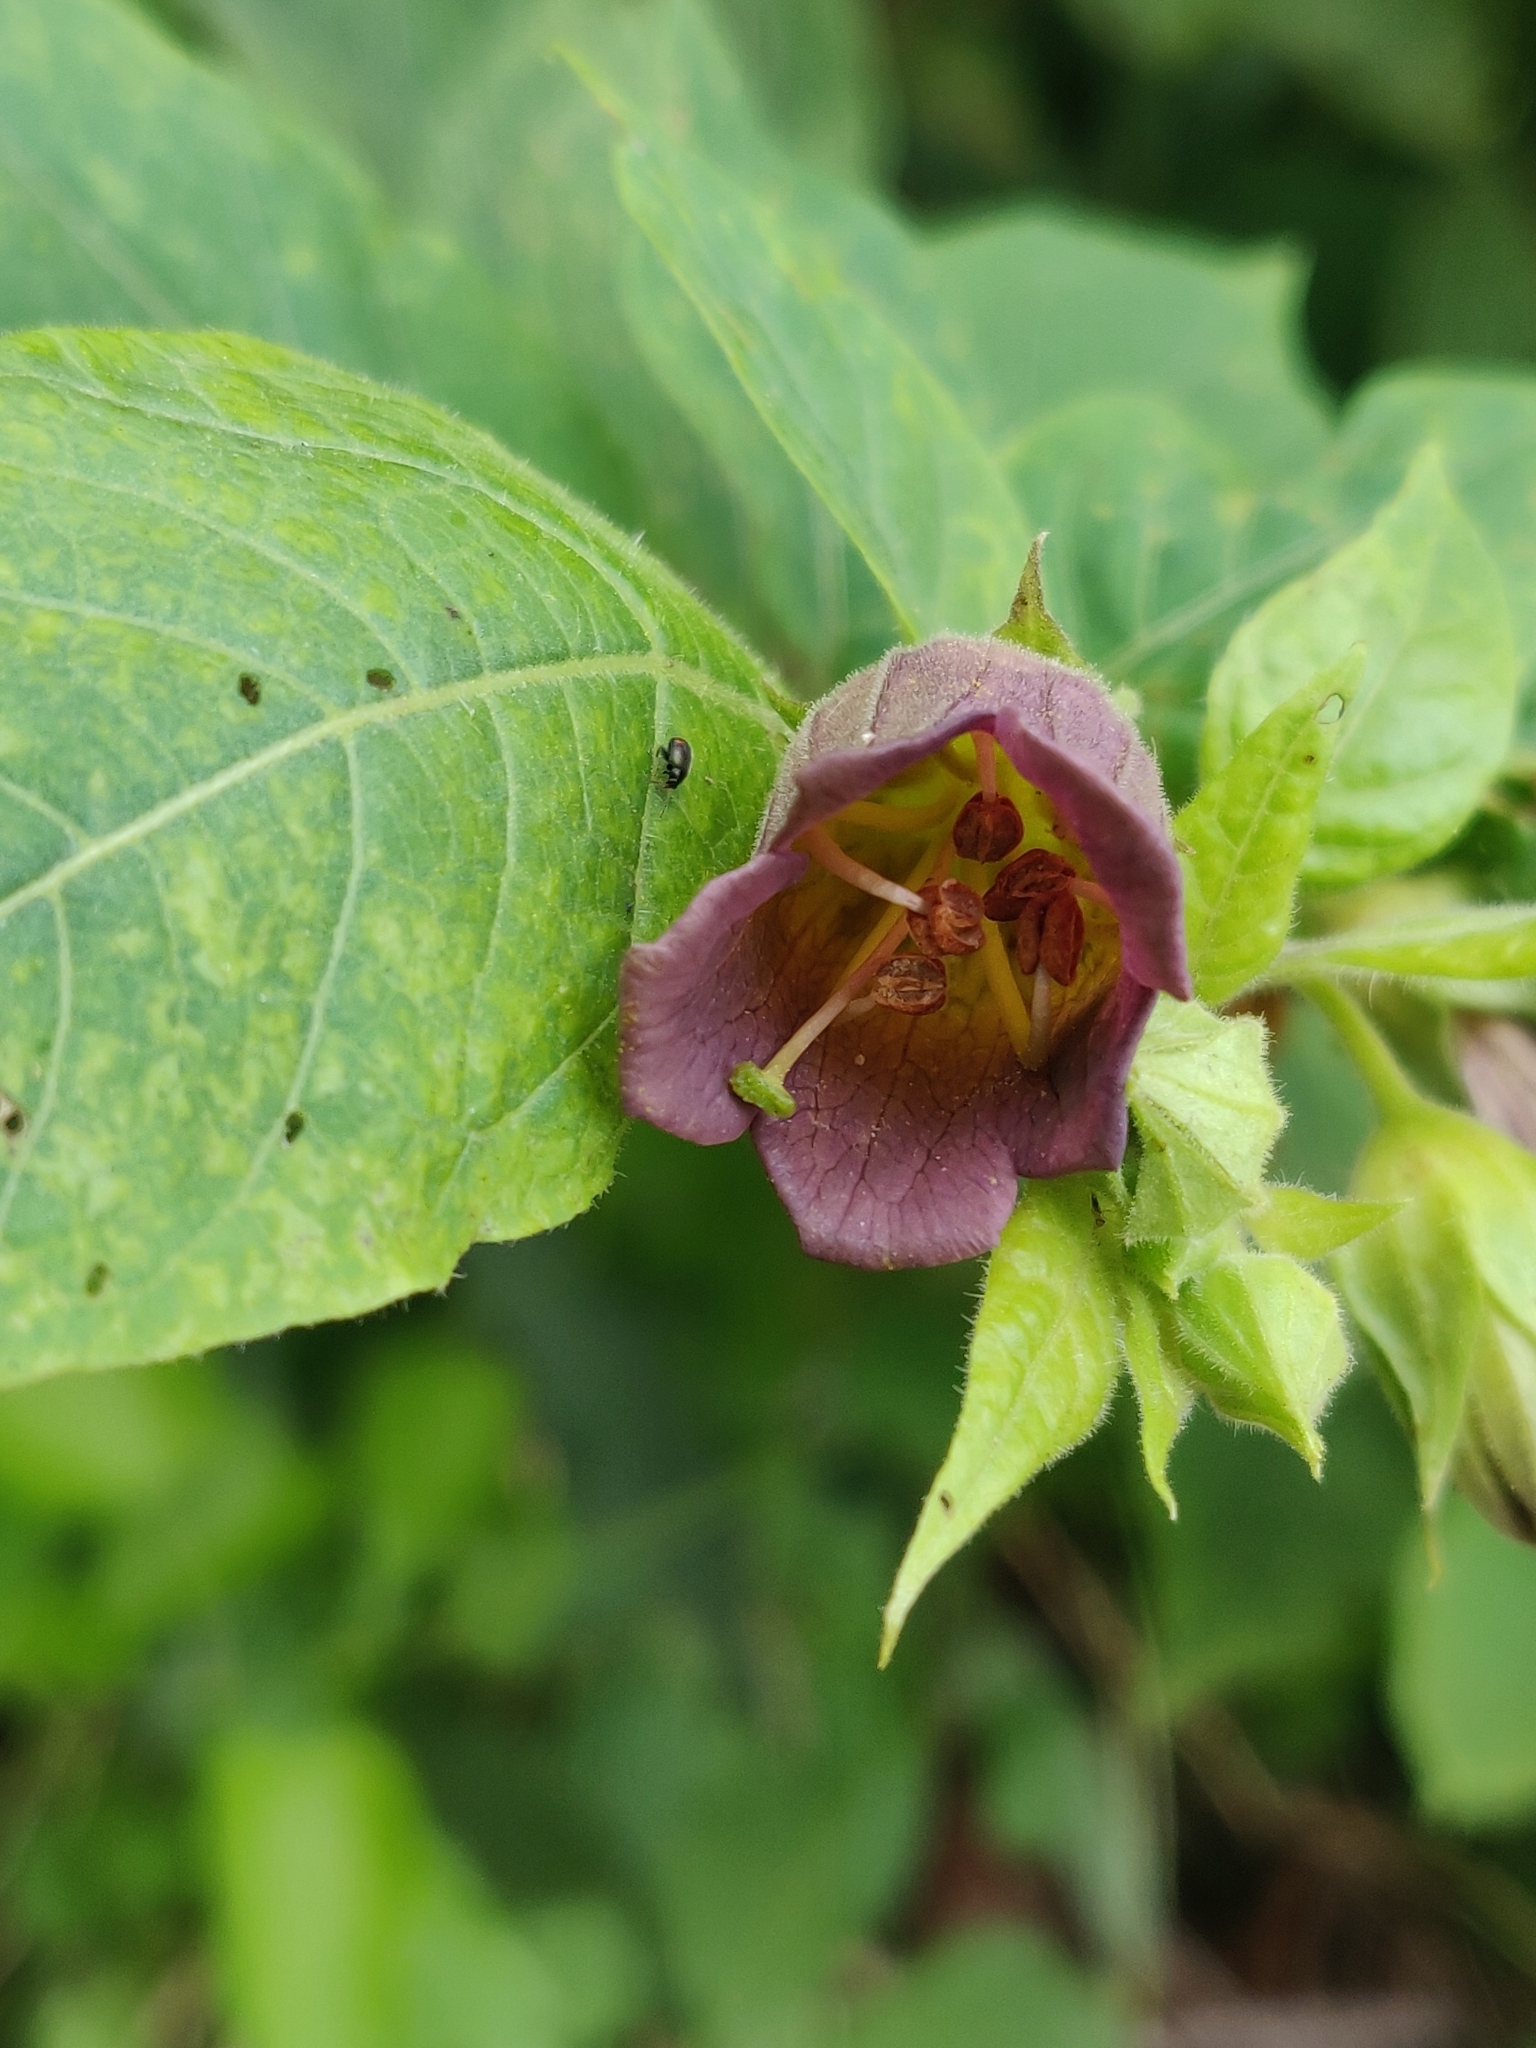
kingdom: Plantae
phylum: Tracheophyta
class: Magnoliopsida
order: Solanales
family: Solanaceae
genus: Atropa
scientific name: Atropa belladonna
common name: Deadly nightshade
